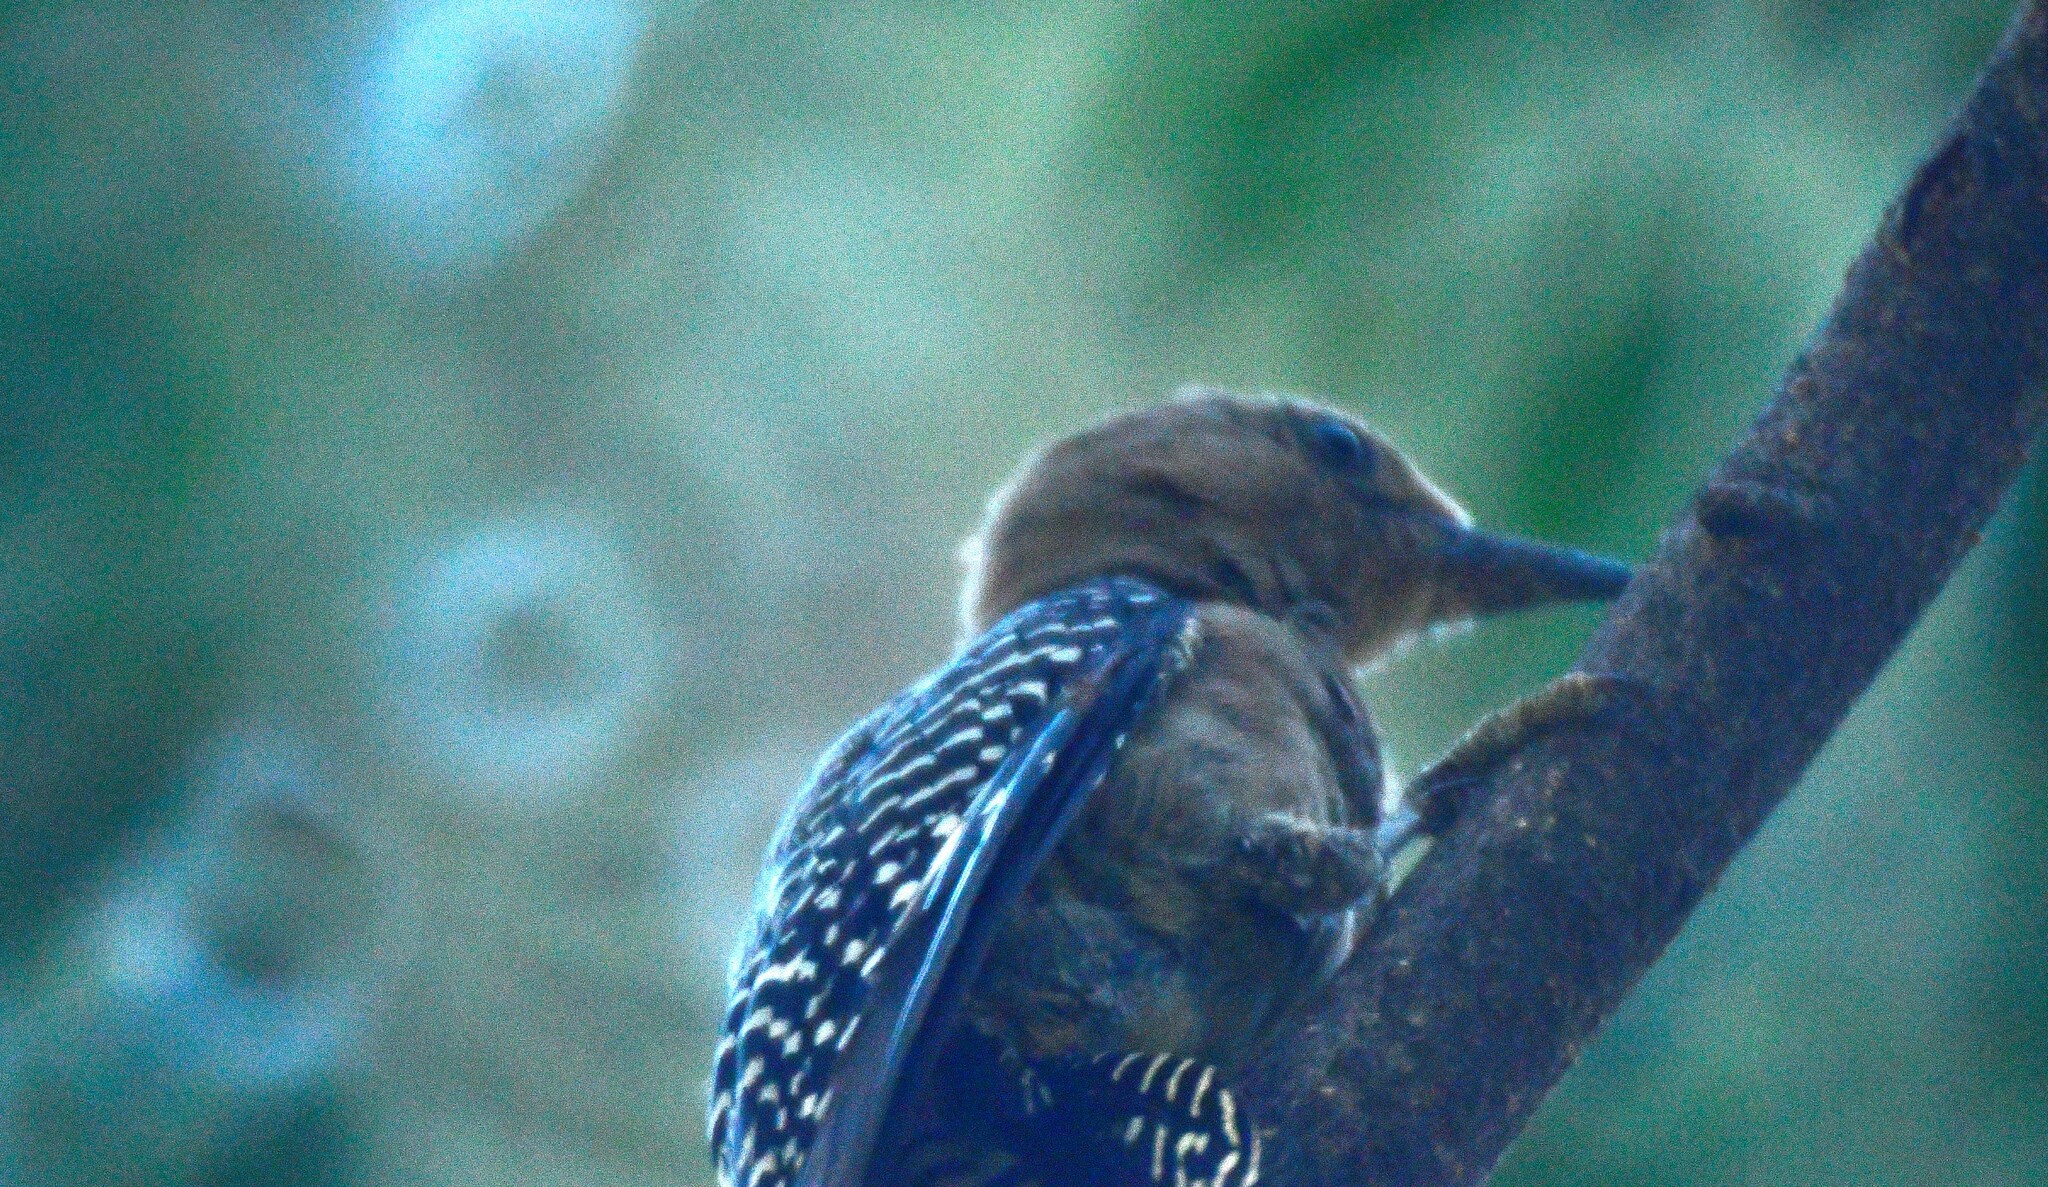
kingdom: Animalia
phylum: Chordata
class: Aves
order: Piciformes
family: Picidae
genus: Melanerpes
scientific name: Melanerpes uropygialis
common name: Gila woodpecker
